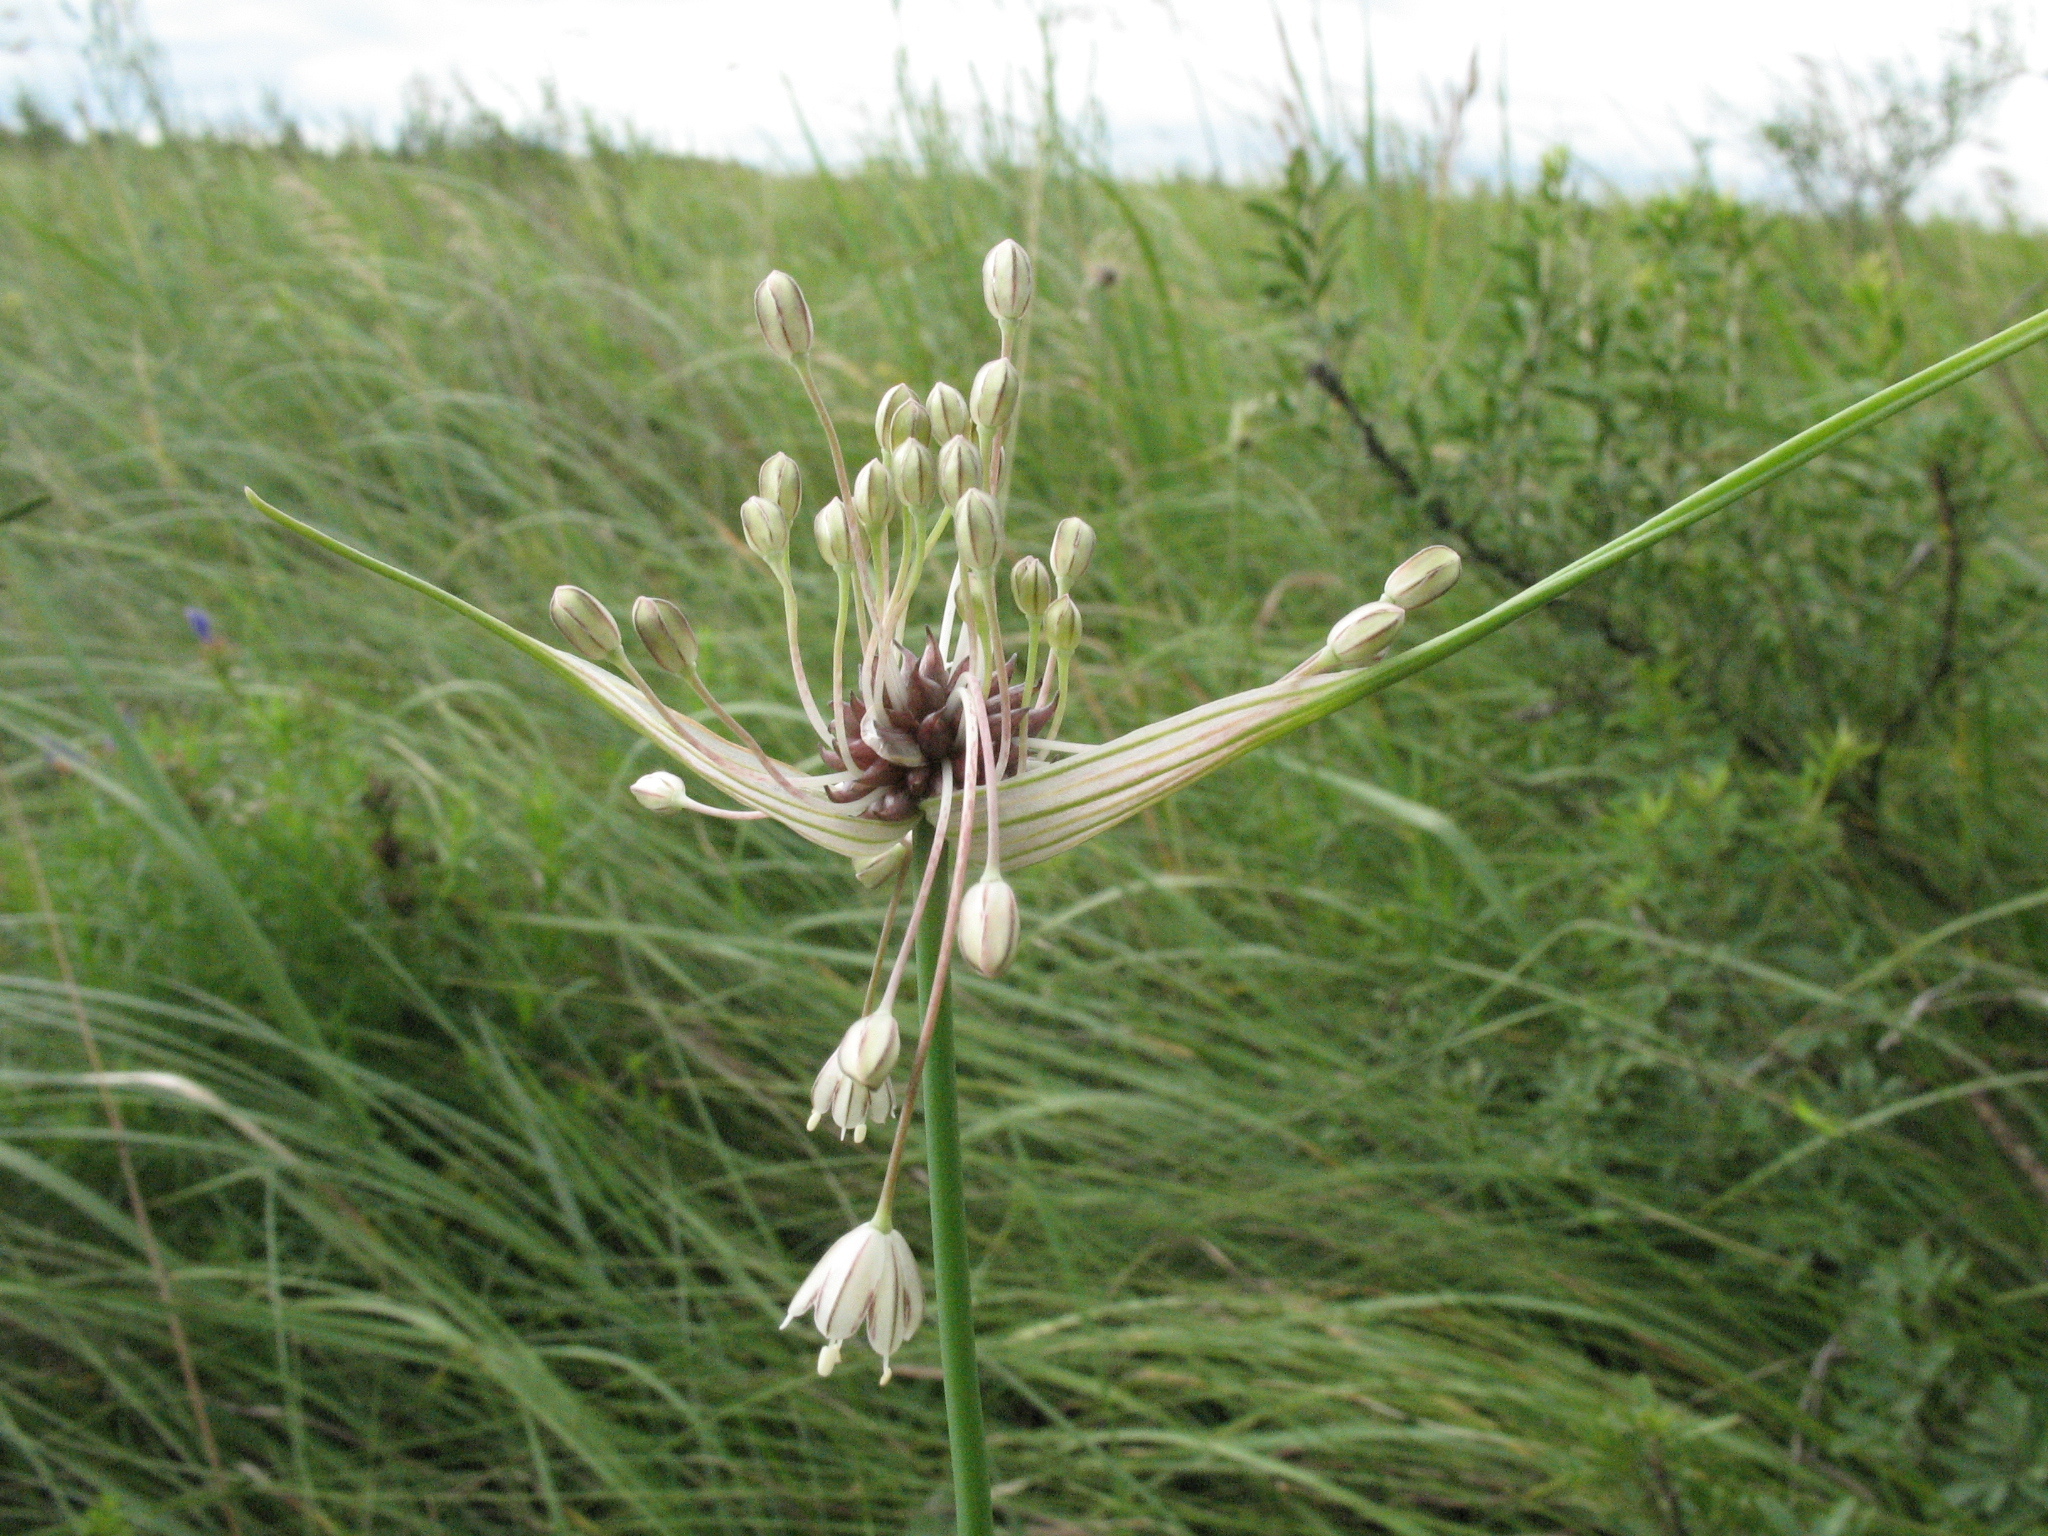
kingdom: Plantae
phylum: Tracheophyta
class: Liliopsida
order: Asparagales
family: Amaryllidaceae
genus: Allium
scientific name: Allium oleraceum
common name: Field garlic
